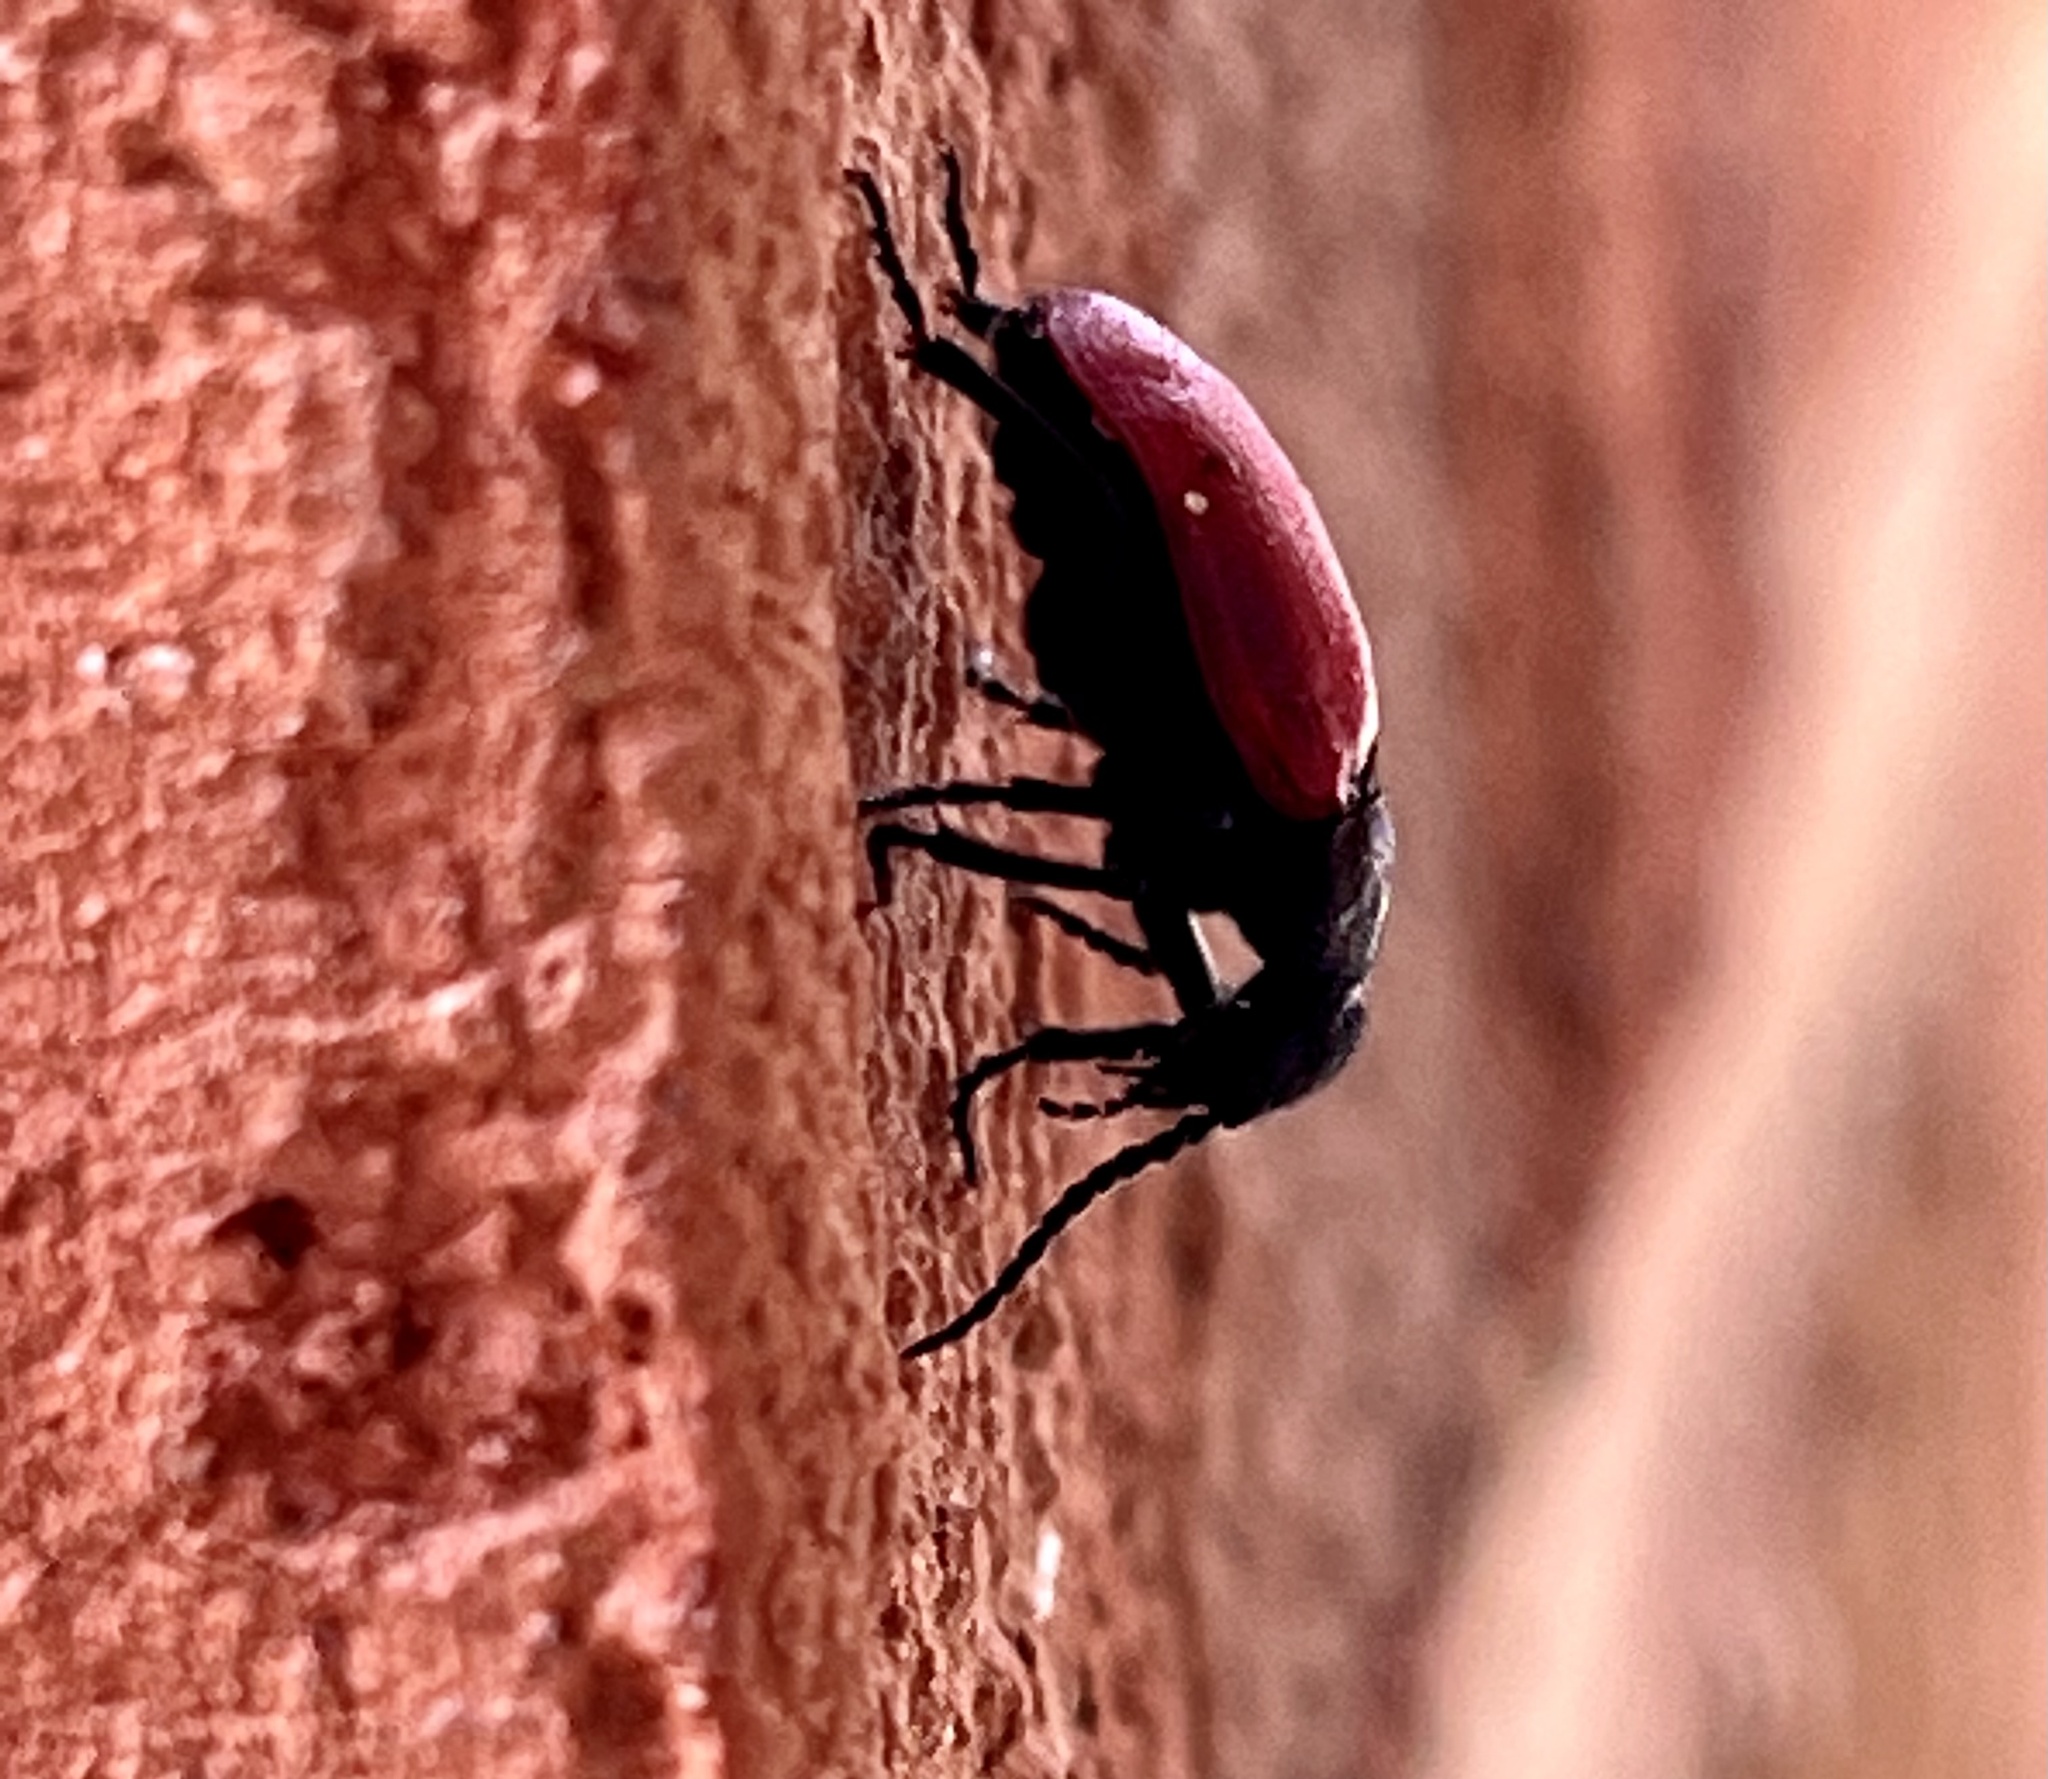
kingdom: Animalia
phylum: Arthropoda
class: Insecta
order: Coleoptera
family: Meloidae
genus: Tricrania
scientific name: Tricrania sanguinipennis
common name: Blood-winged blister beetle
